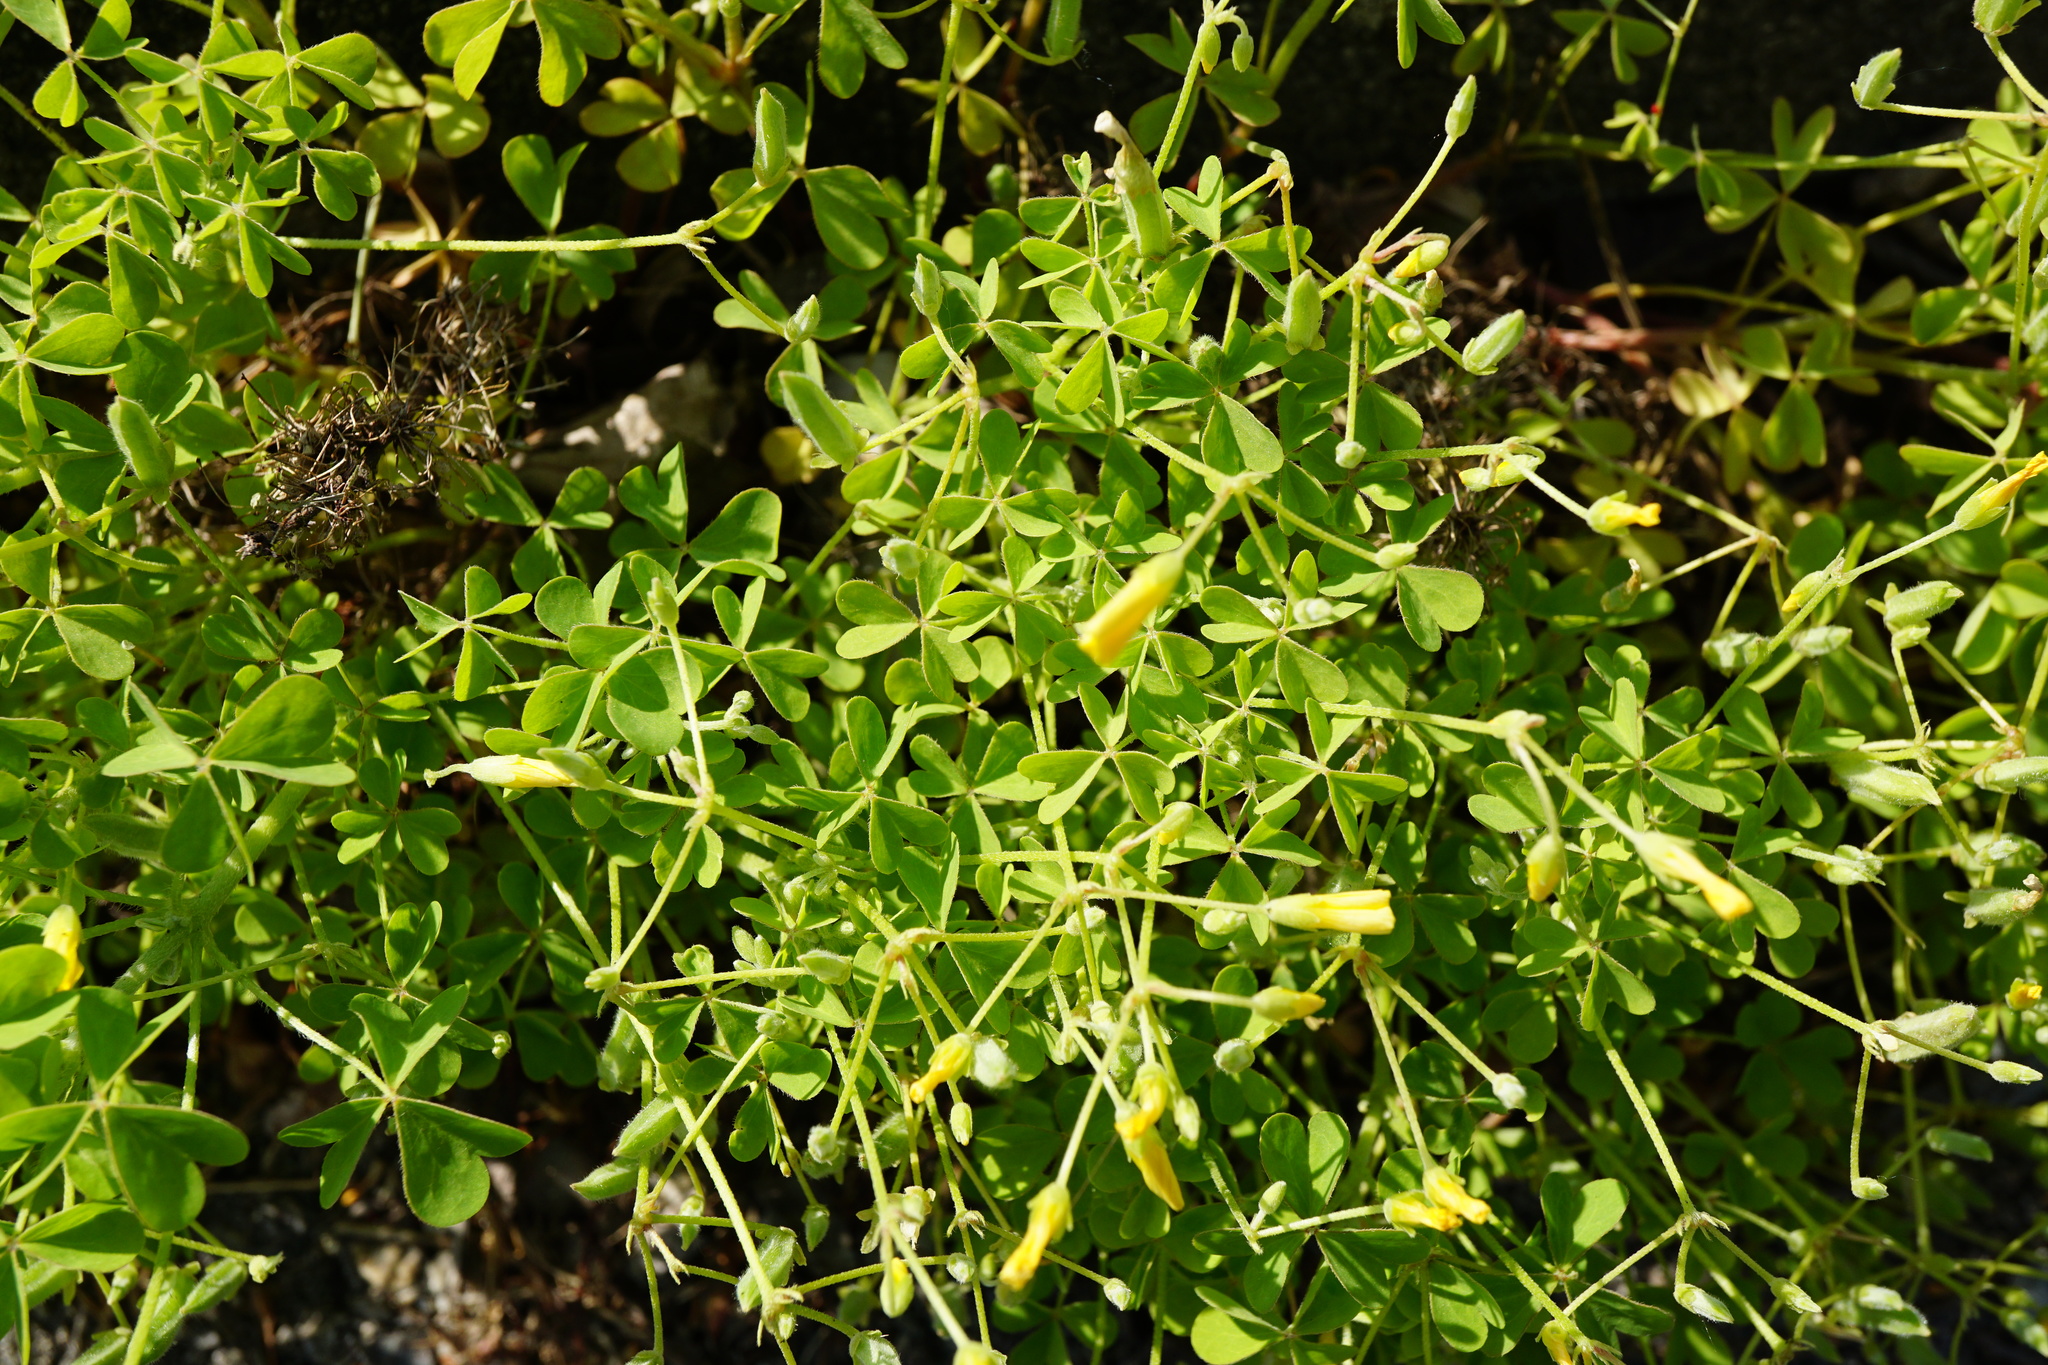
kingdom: Plantae
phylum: Tracheophyta
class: Magnoliopsida
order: Oxalidales
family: Oxalidaceae
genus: Oxalis
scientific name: Oxalis dillenii
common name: Sussex yellow-sorrel
